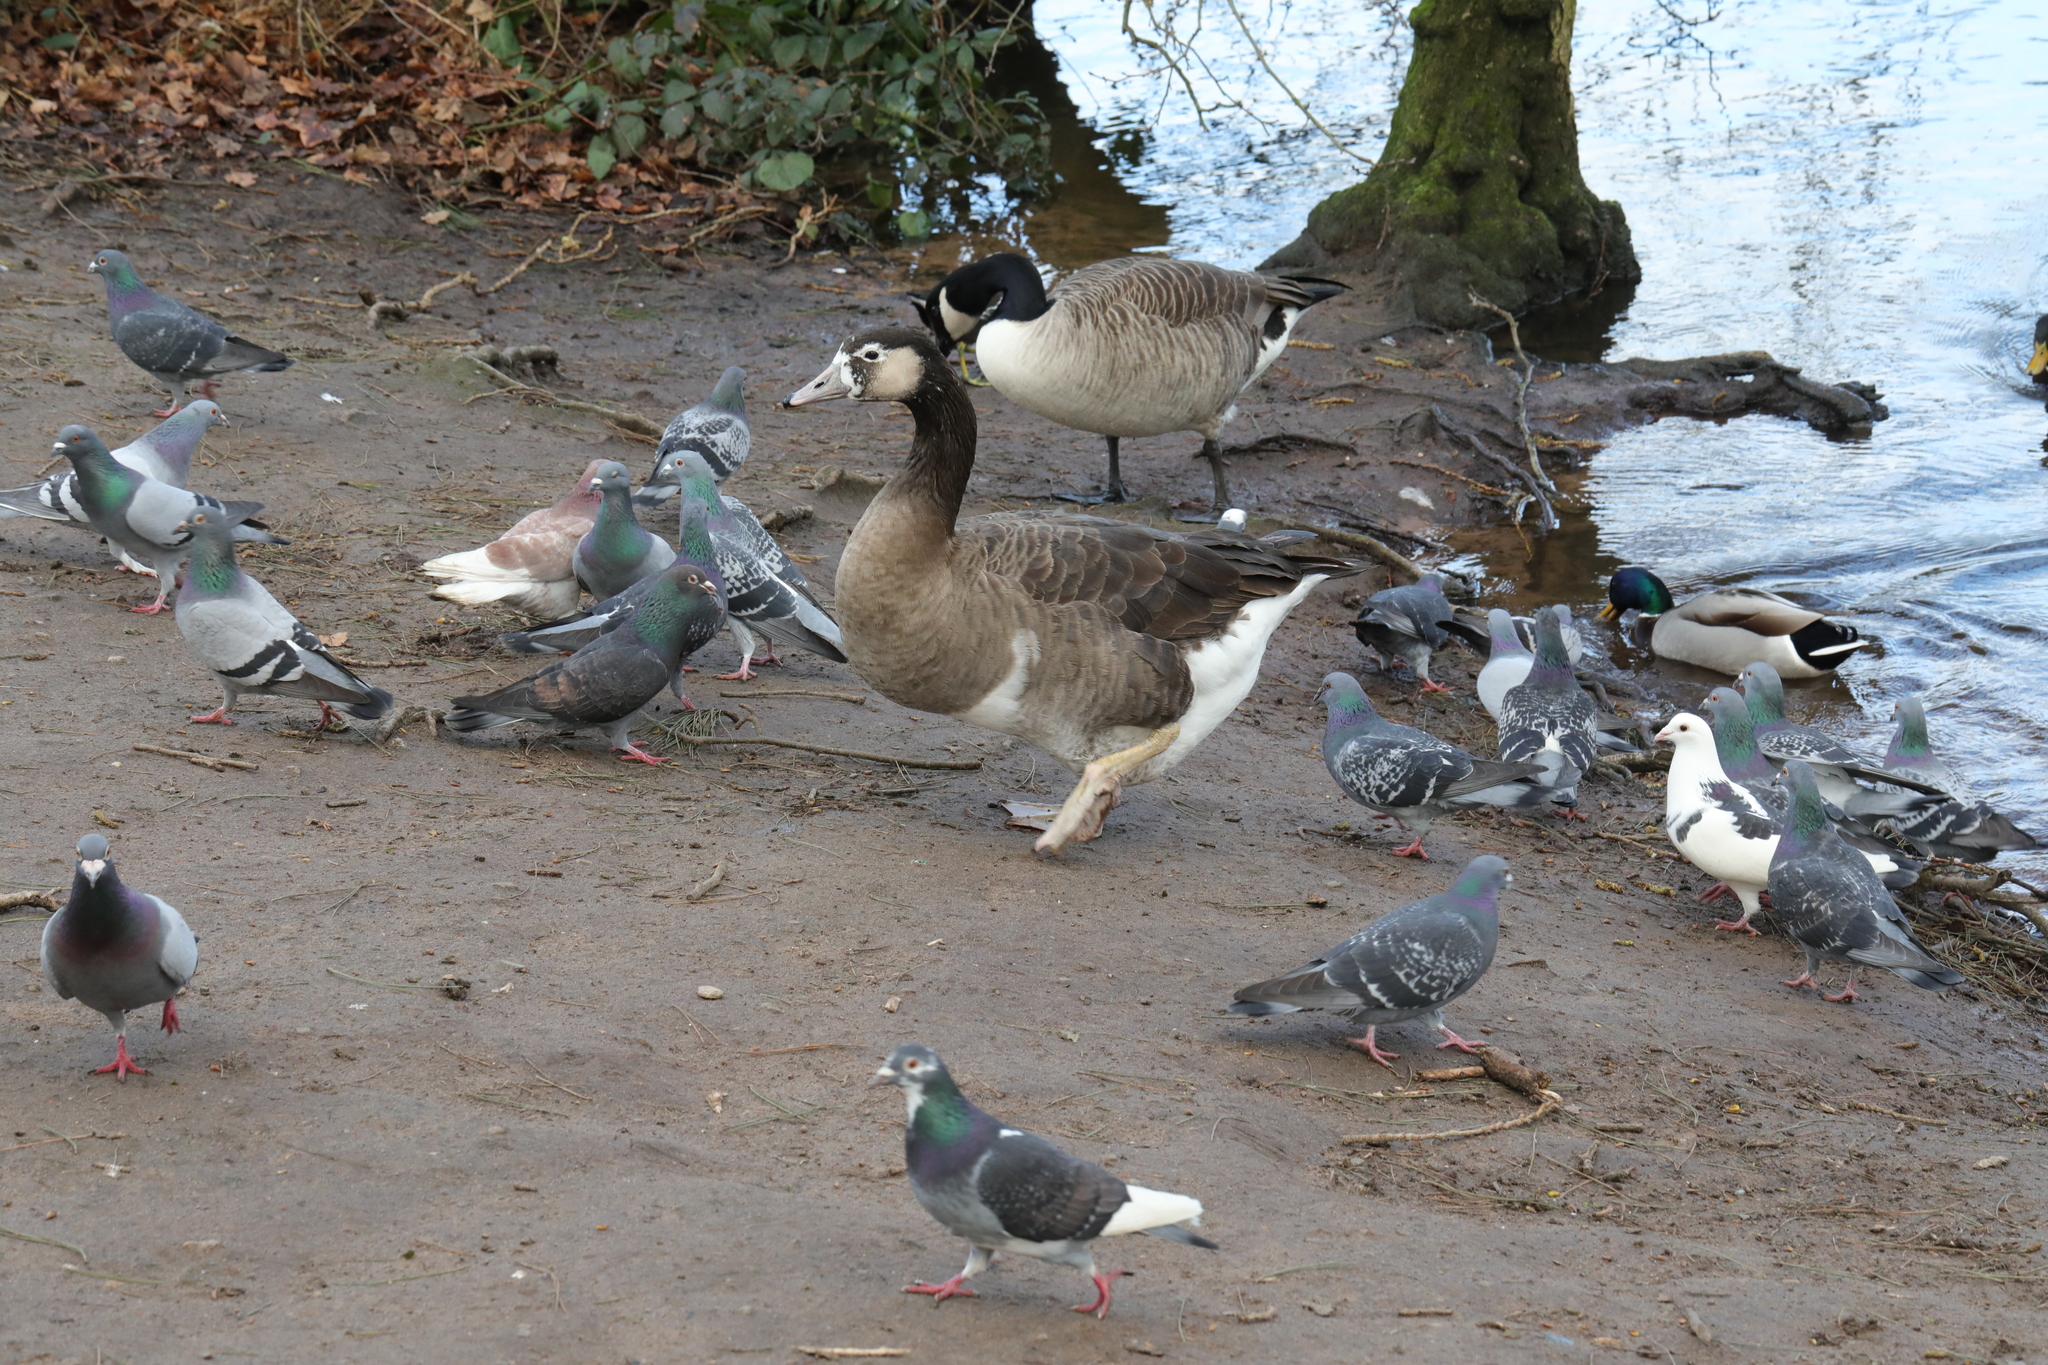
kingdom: Animalia
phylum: Chordata
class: Aves
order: Anseriformes
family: Anatidae
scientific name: Anatidae
